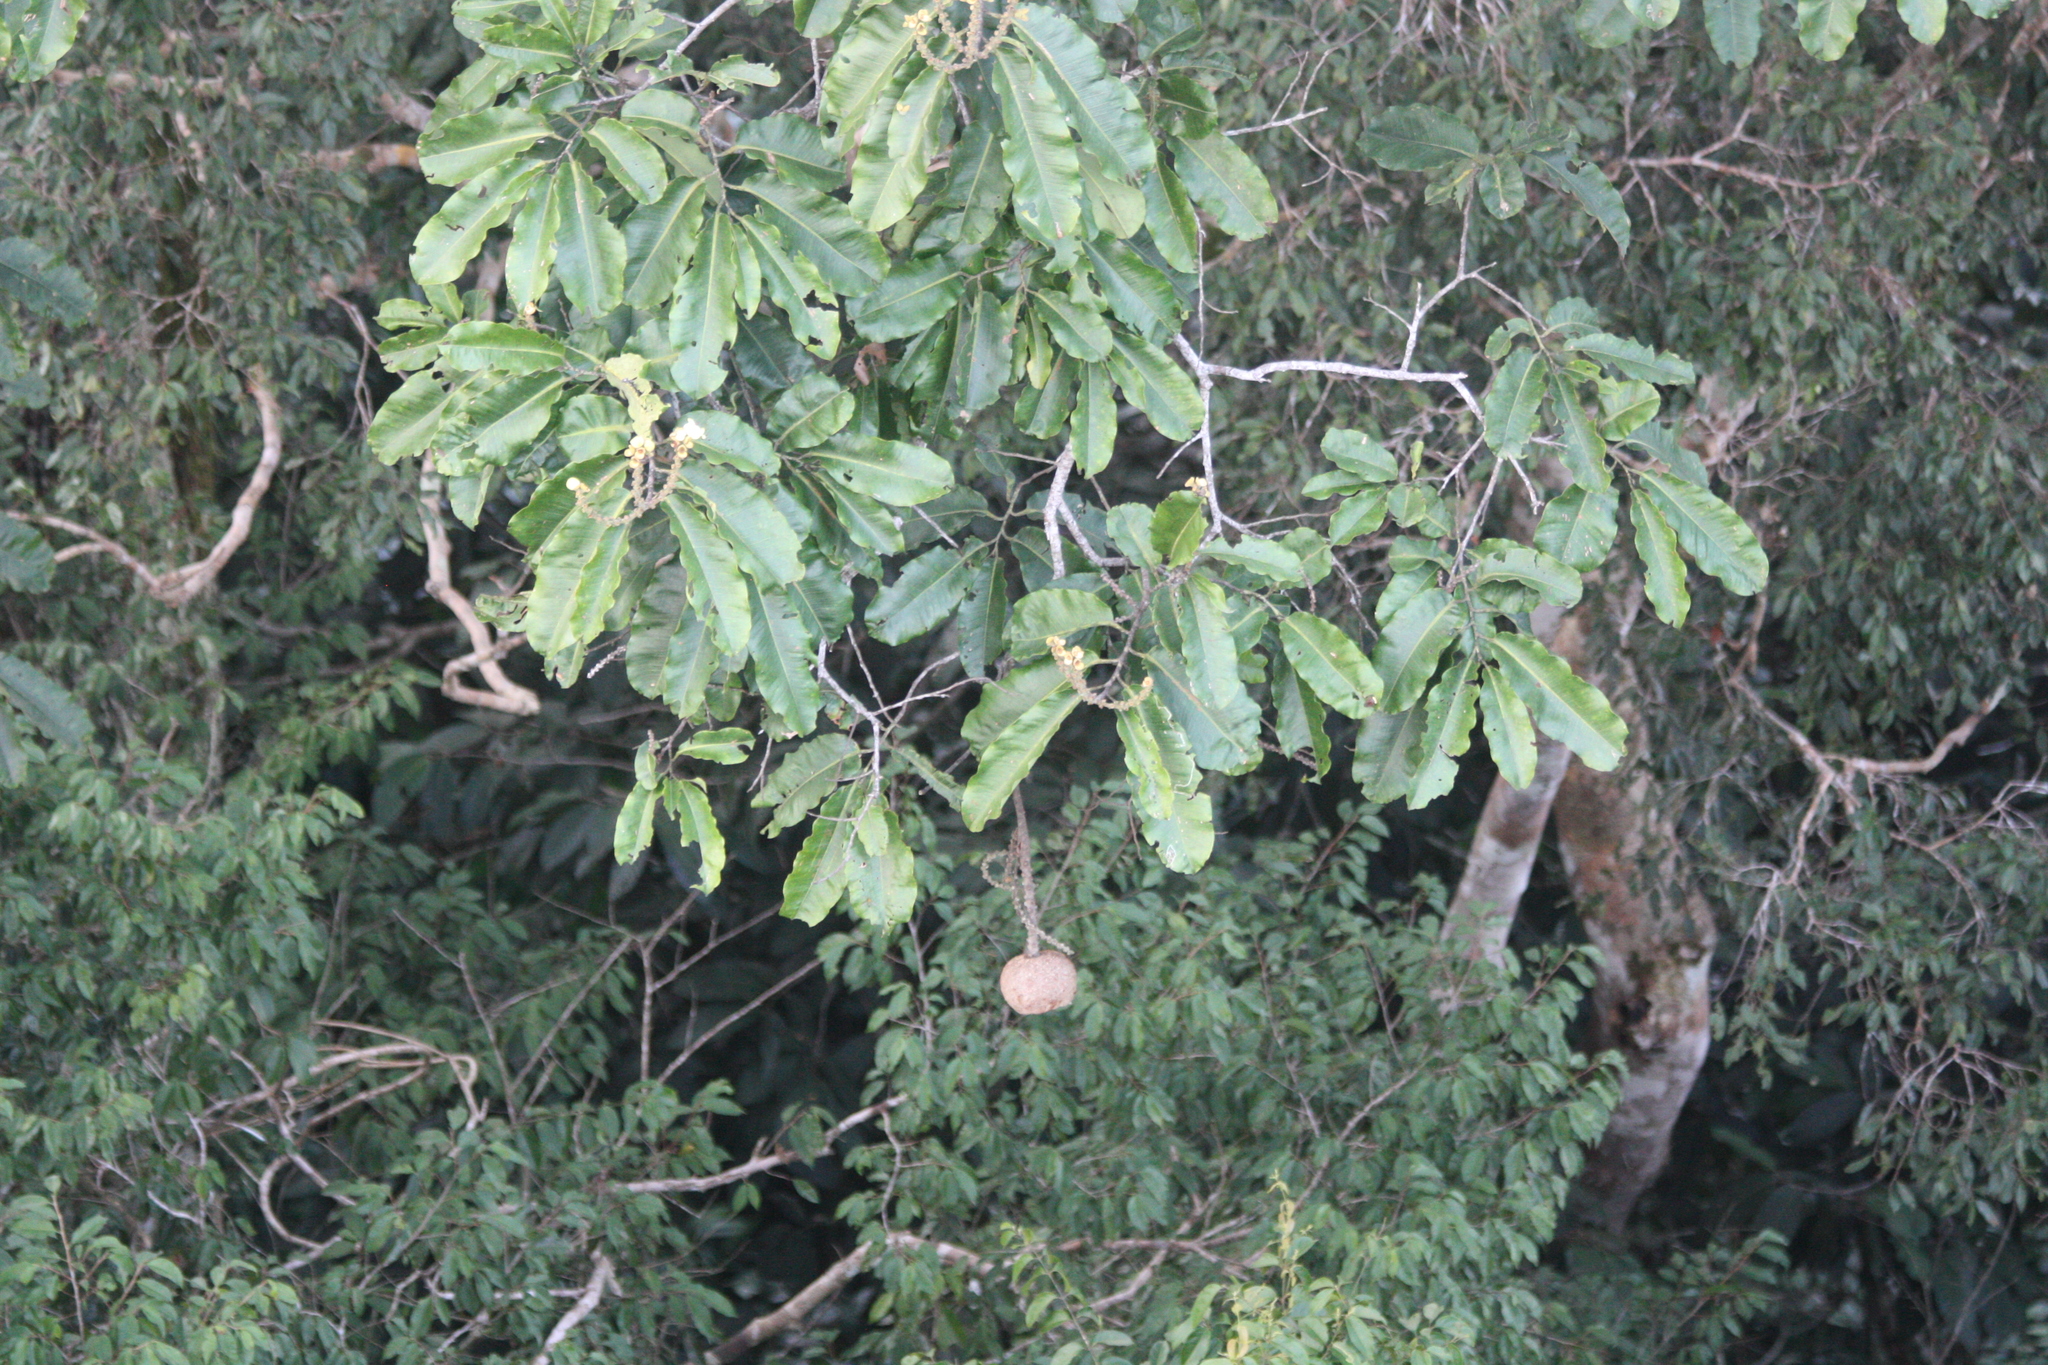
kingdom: Plantae
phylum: Tracheophyta
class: Magnoliopsida
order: Ericales
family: Lecythidaceae
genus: Bertholletia
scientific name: Bertholletia excelsa
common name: Brazil-nut tree
